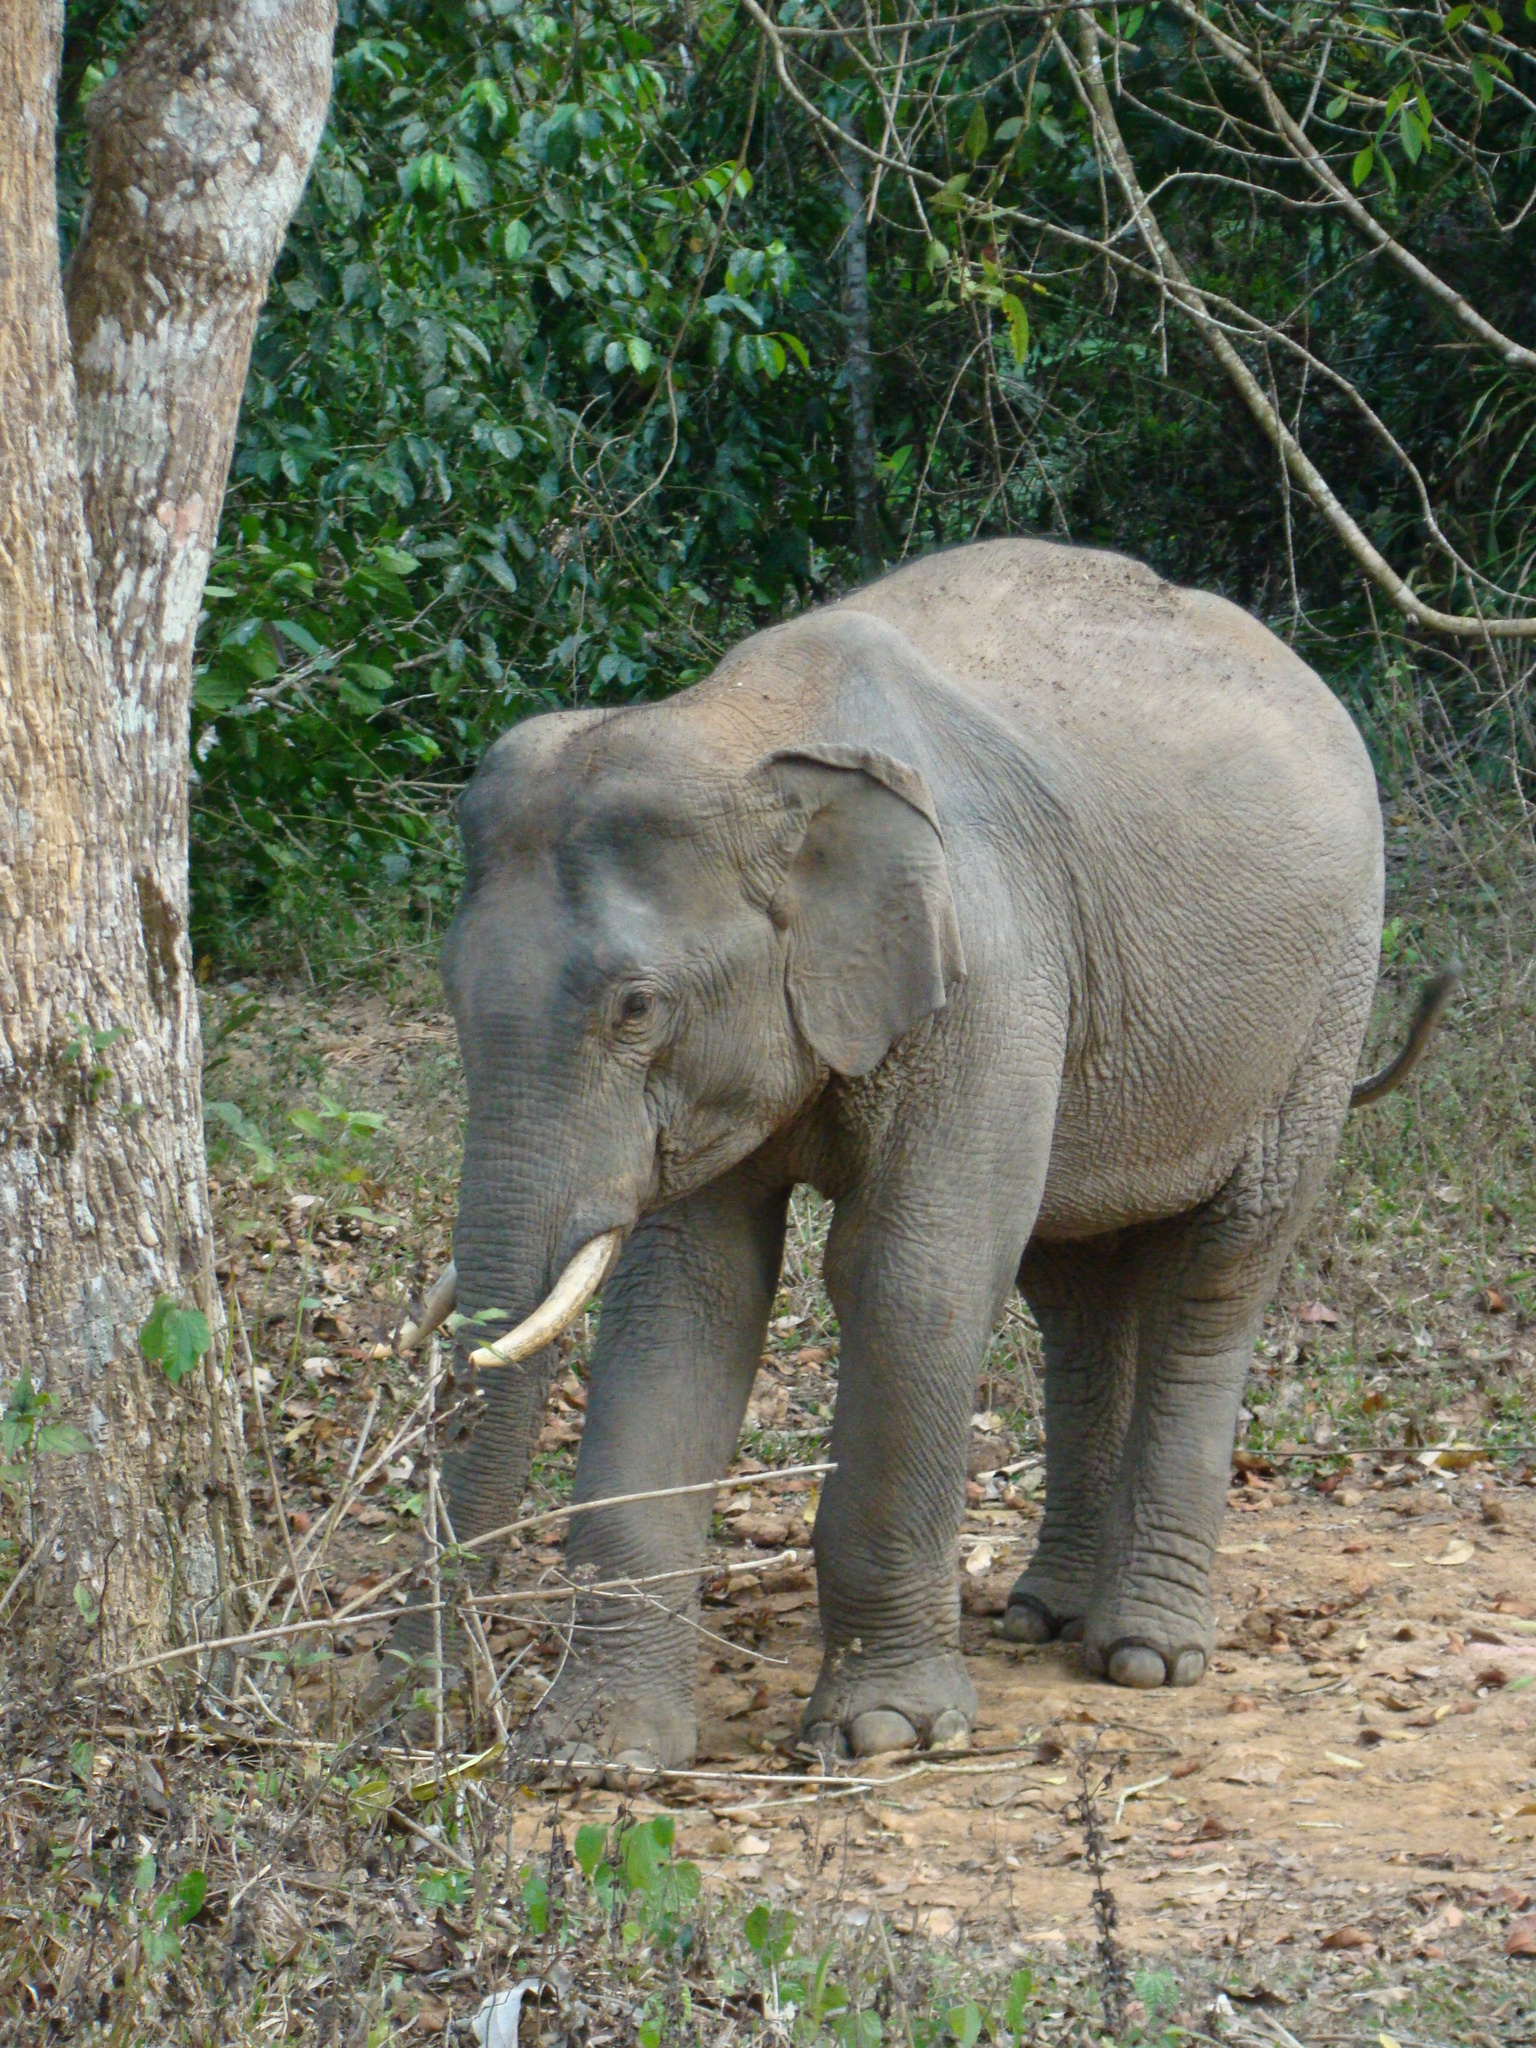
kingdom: Animalia
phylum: Chordata
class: Mammalia
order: Proboscidea
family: Elephantidae
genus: Elephas
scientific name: Elephas maximus
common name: Asian elephant
